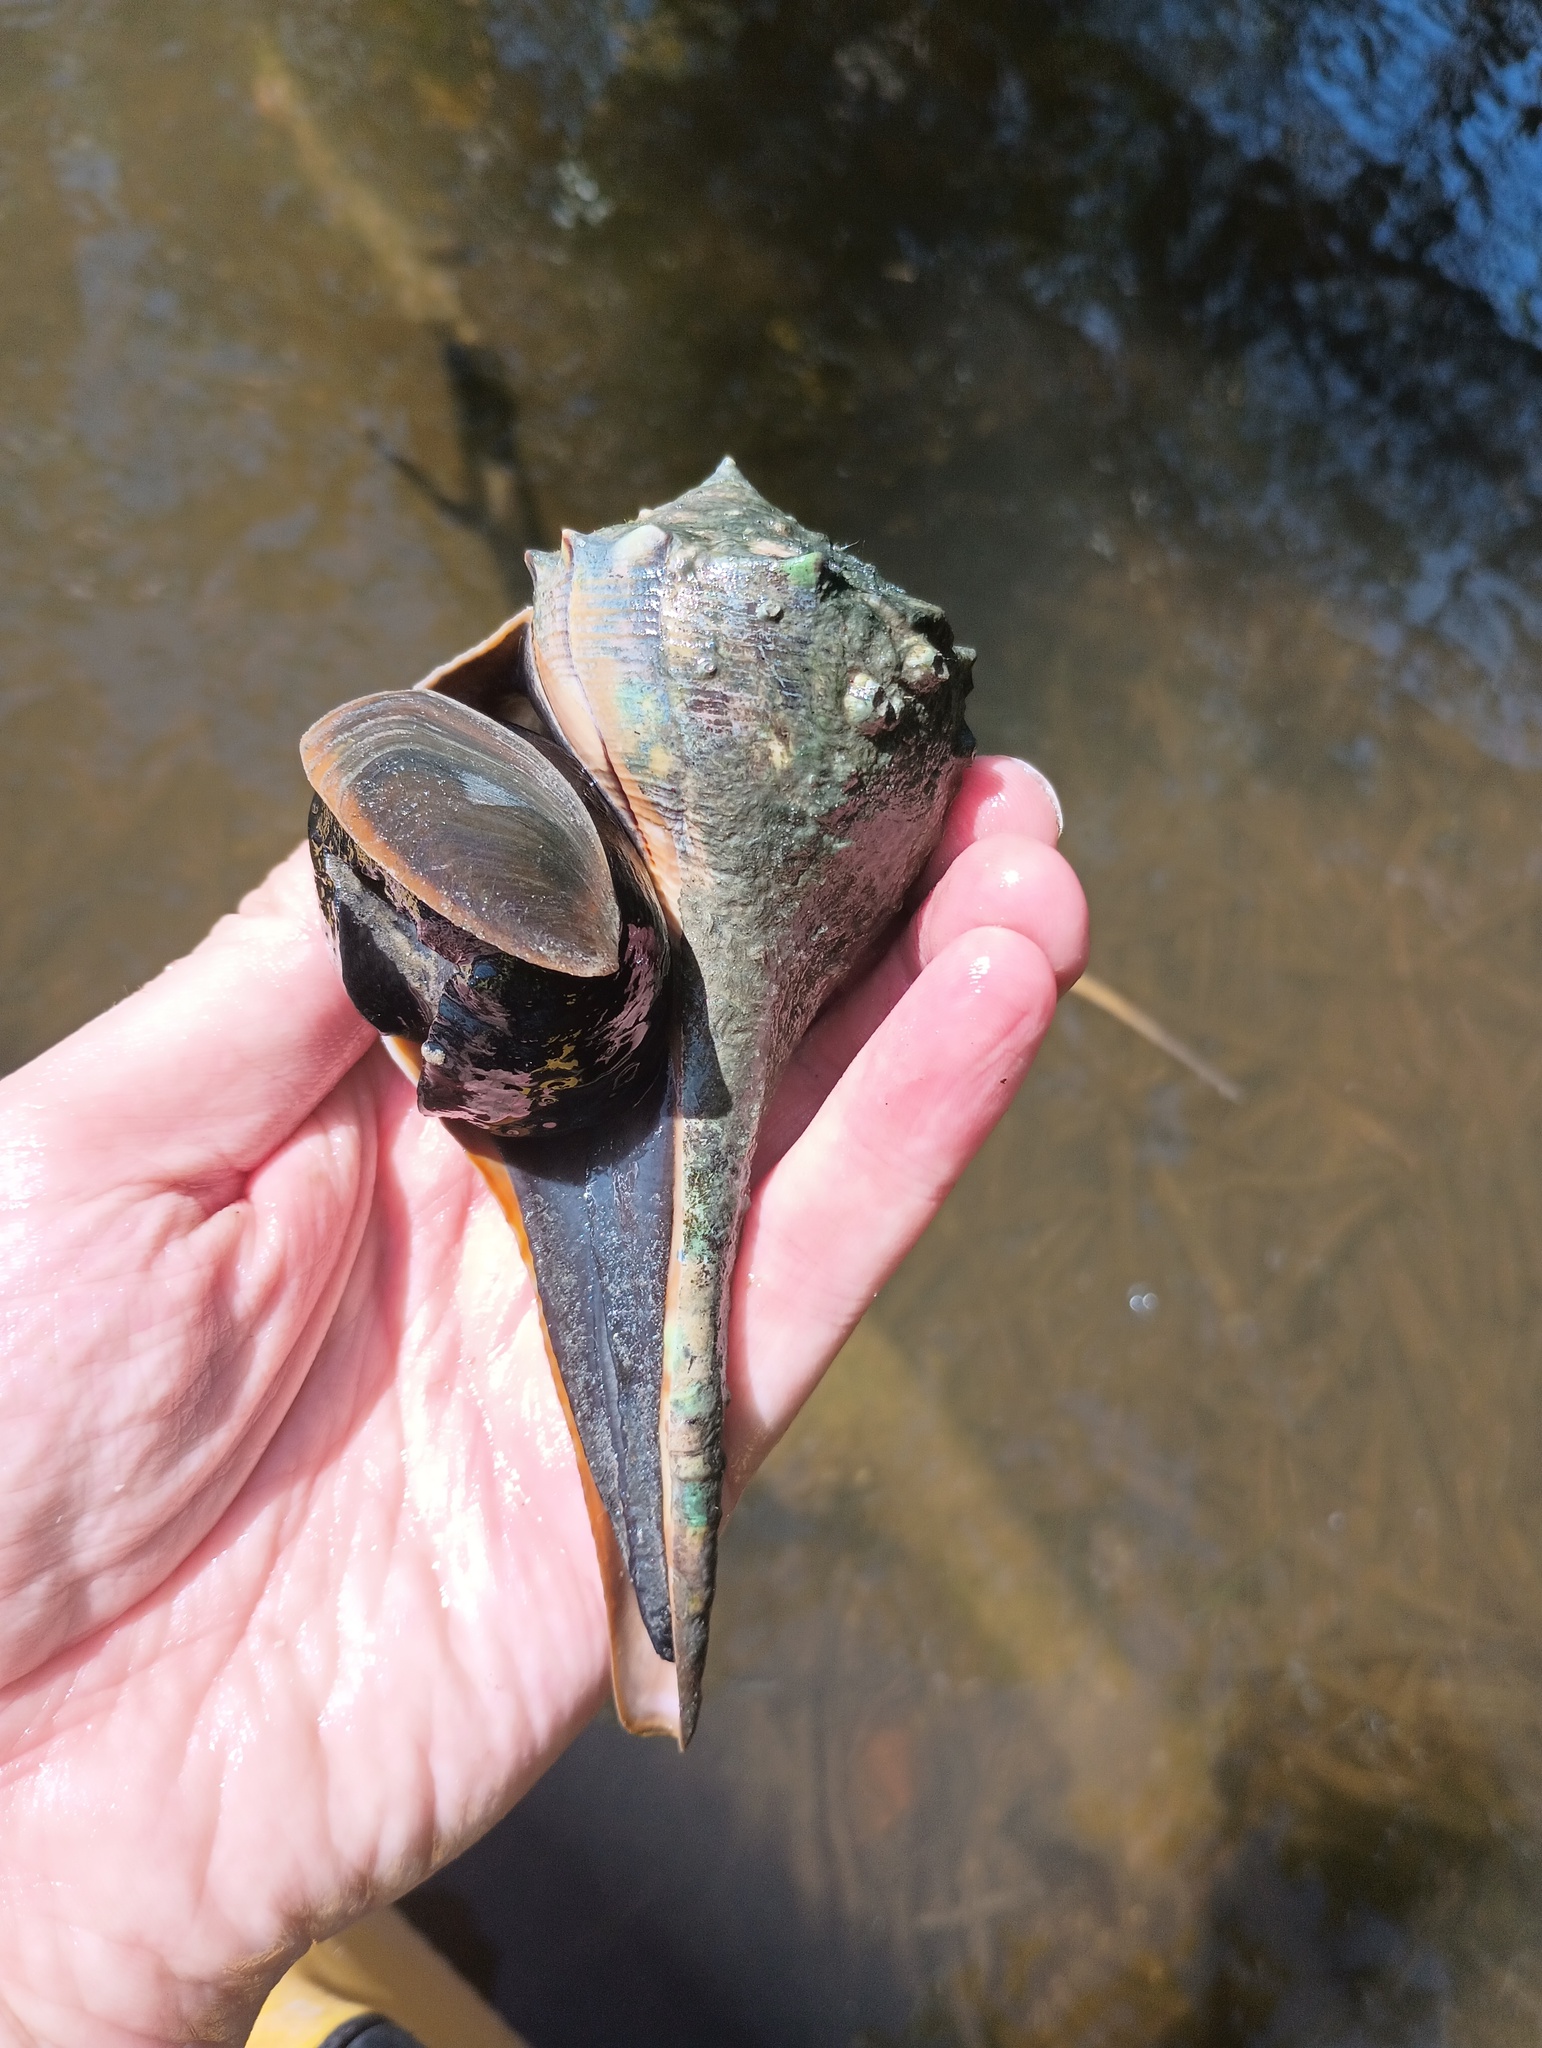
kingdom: Animalia
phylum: Mollusca
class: Gastropoda
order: Neogastropoda
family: Busyconidae
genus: Sinistrofulgur
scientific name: Sinistrofulgur sinistrum
